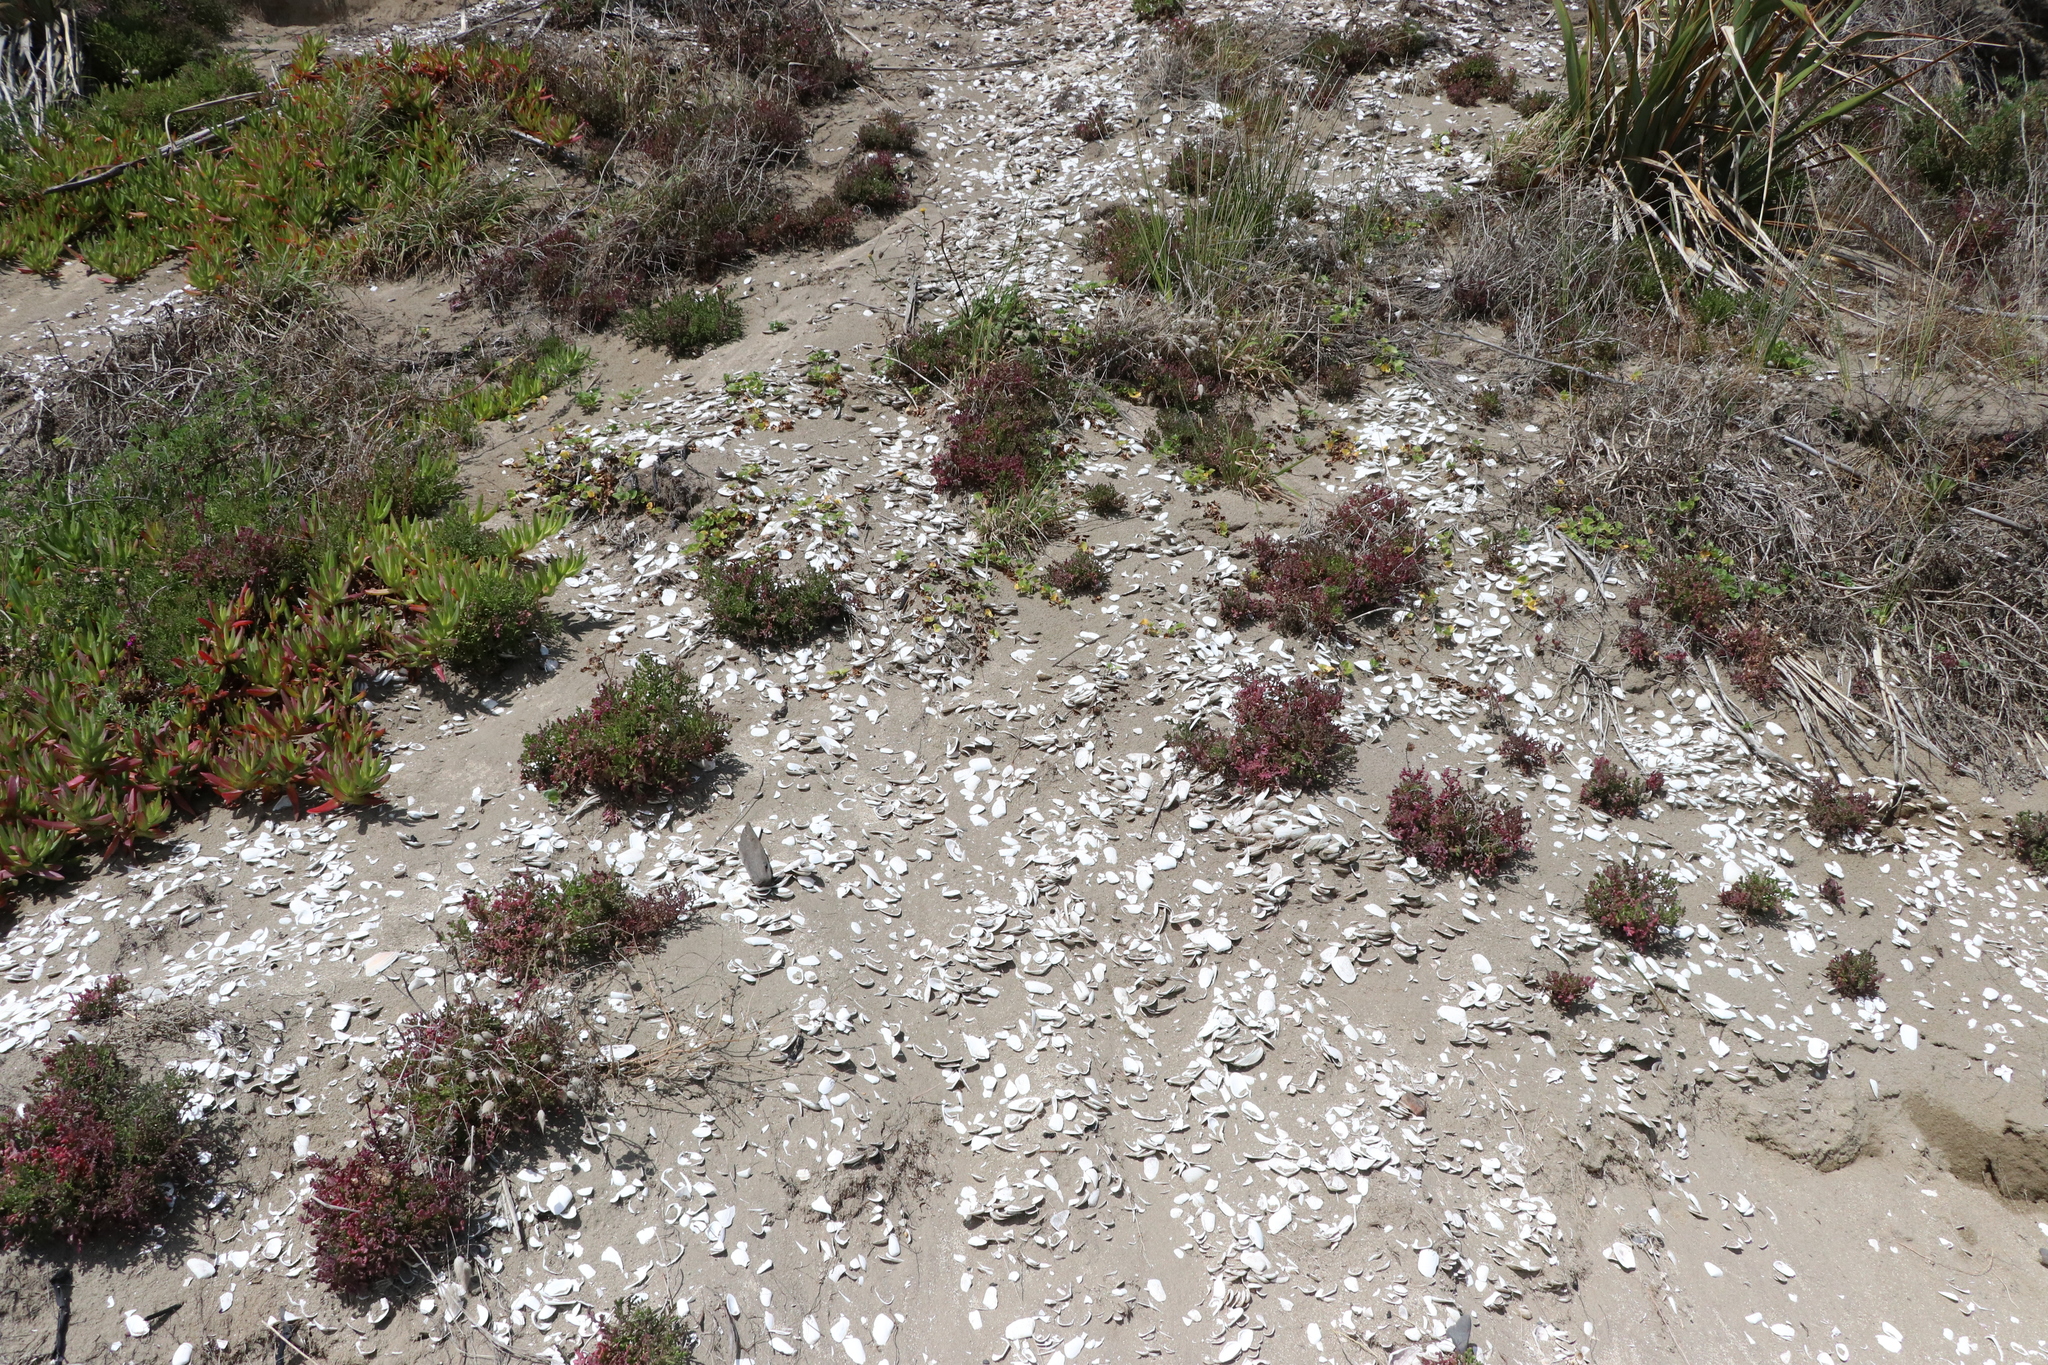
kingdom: Animalia
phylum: Mollusca
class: Bivalvia
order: Venerida
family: Mesodesmatidae
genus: Paphies
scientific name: Paphies subtriangulata
